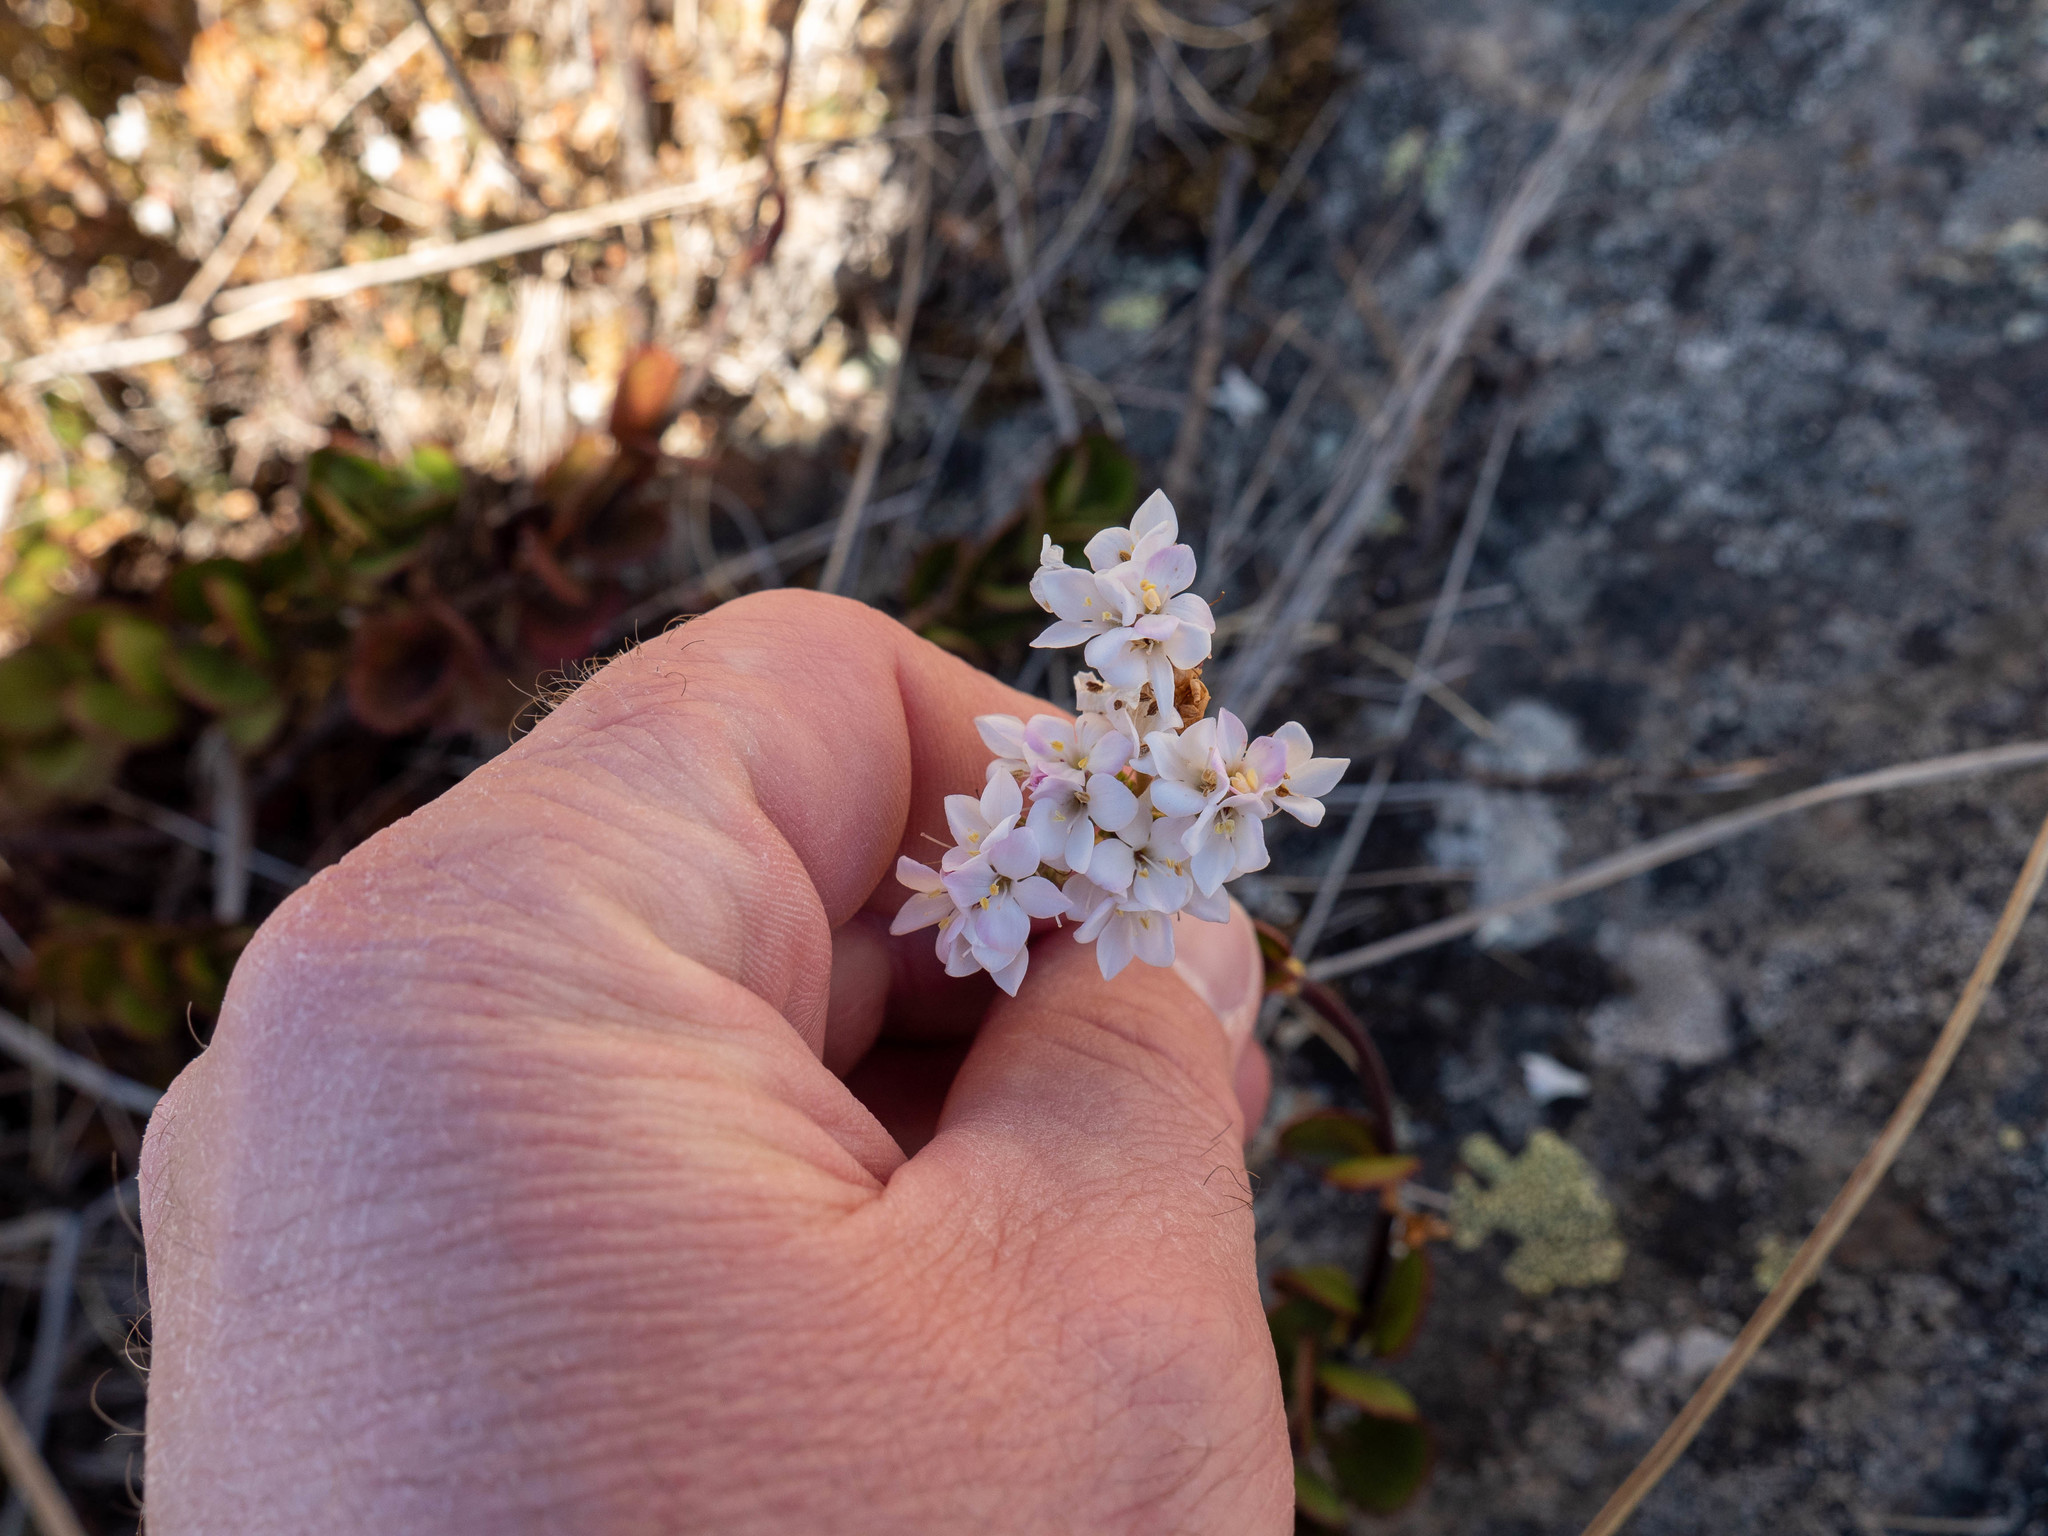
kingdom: Plantae
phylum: Tracheophyta
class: Magnoliopsida
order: Lamiales
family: Plantaginaceae
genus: Veronica
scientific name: Veronica lavaudiana
